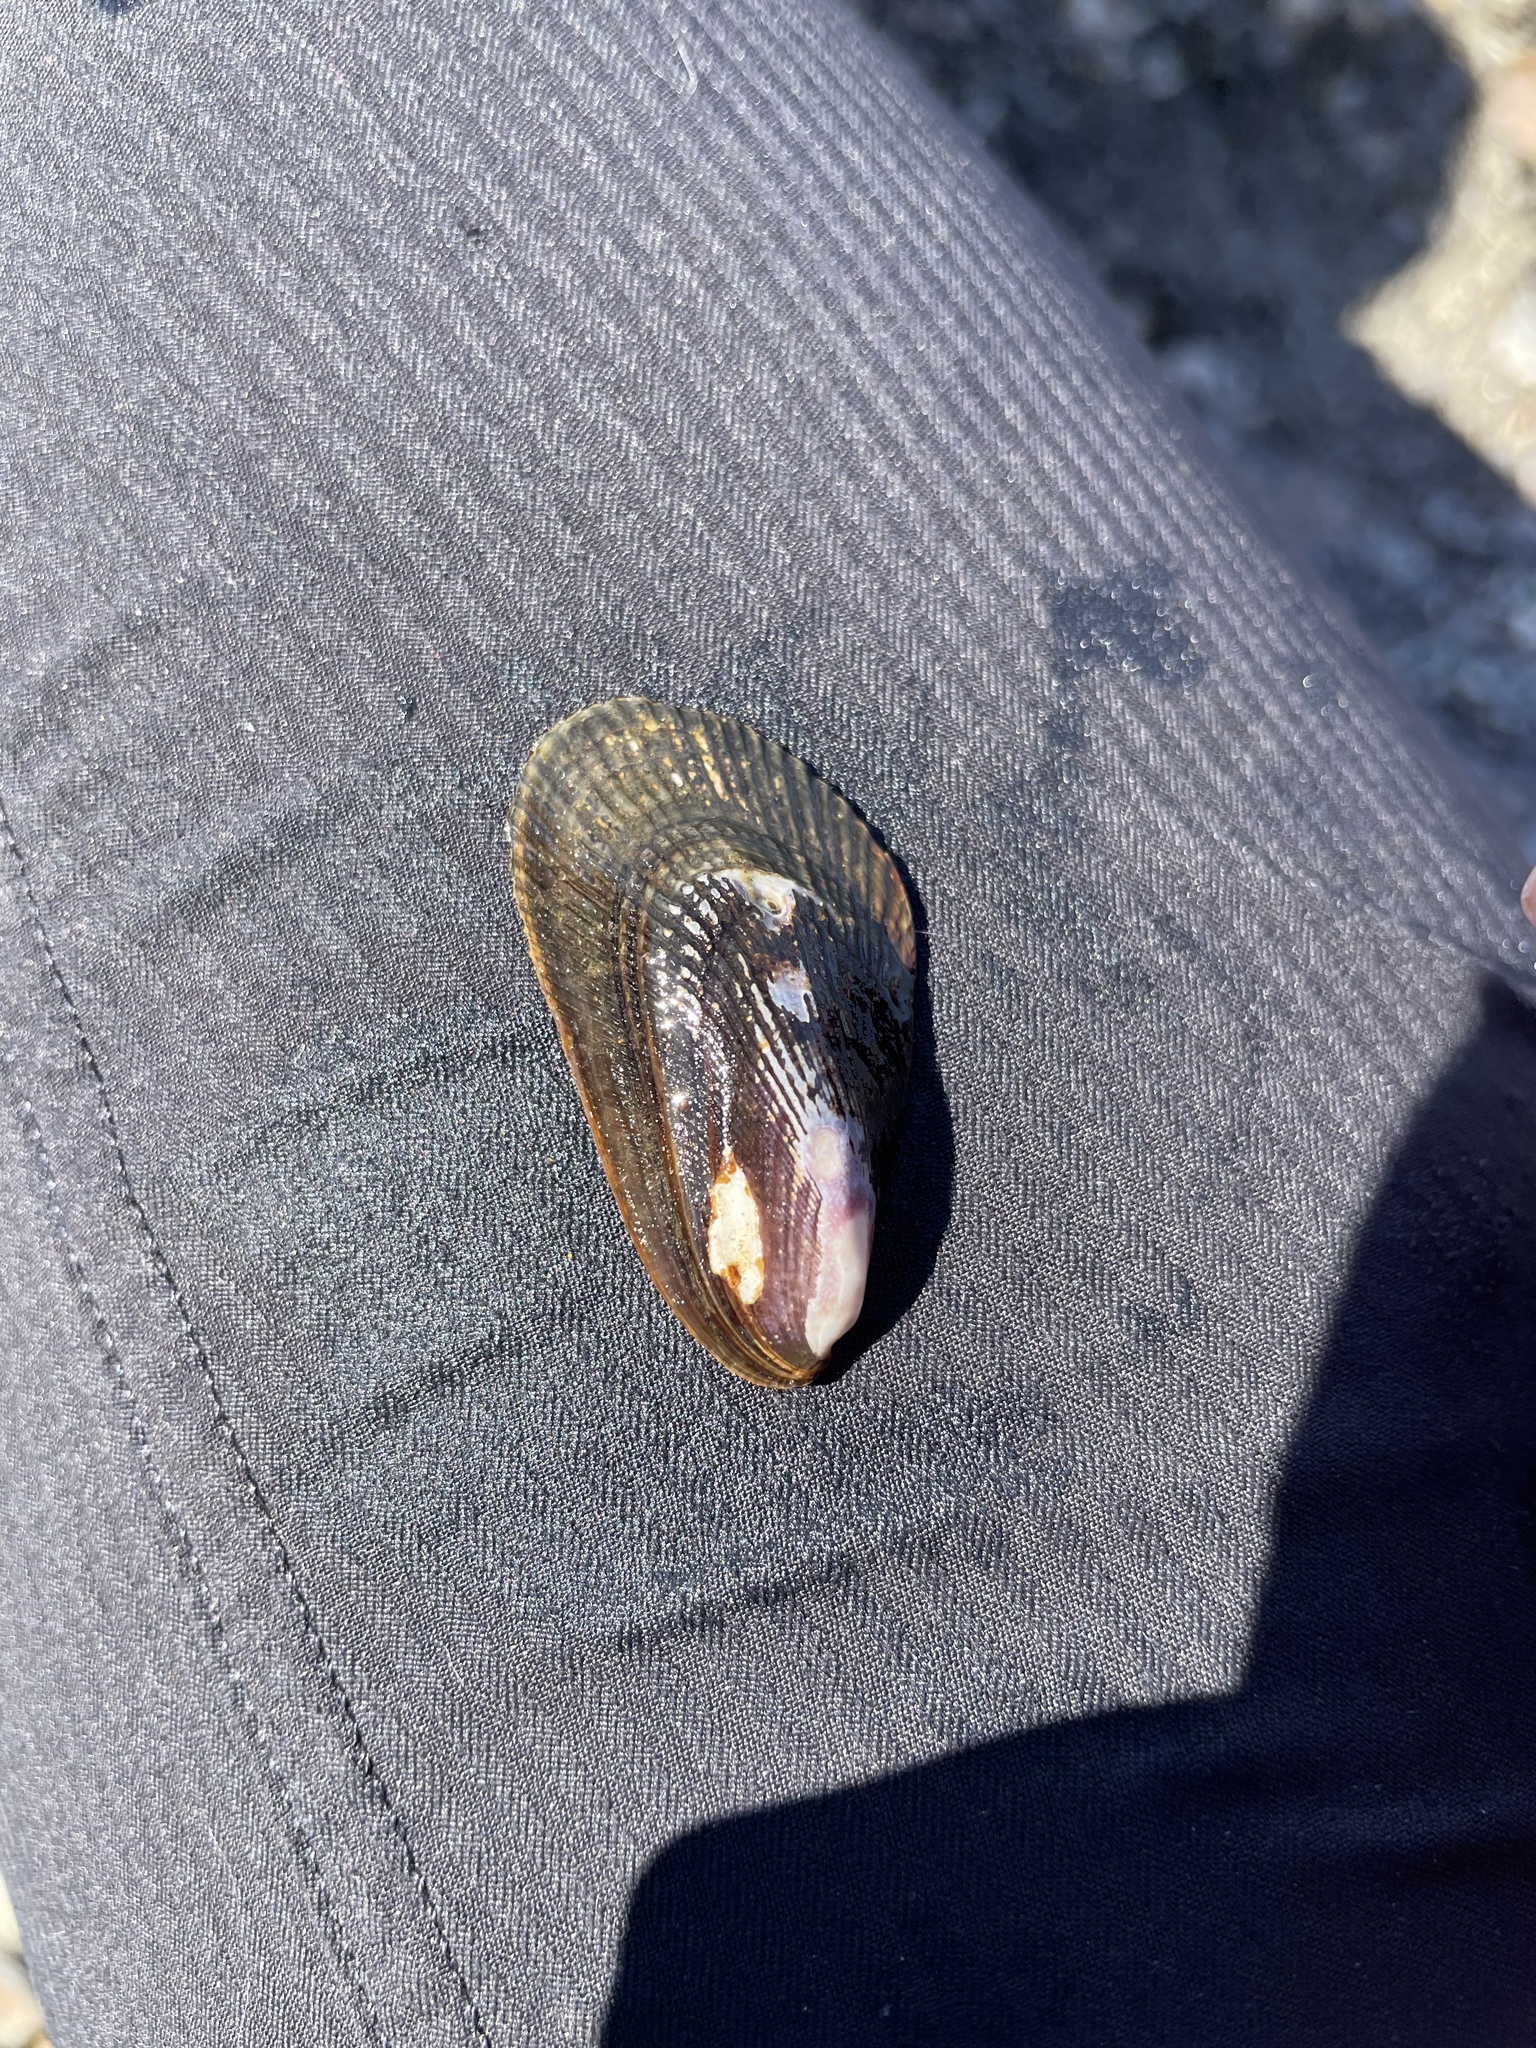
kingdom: Animalia
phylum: Mollusca
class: Bivalvia
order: Mytilida
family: Mytilidae
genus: Geukensia
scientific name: Geukensia demissa
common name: Ribbed mussel
